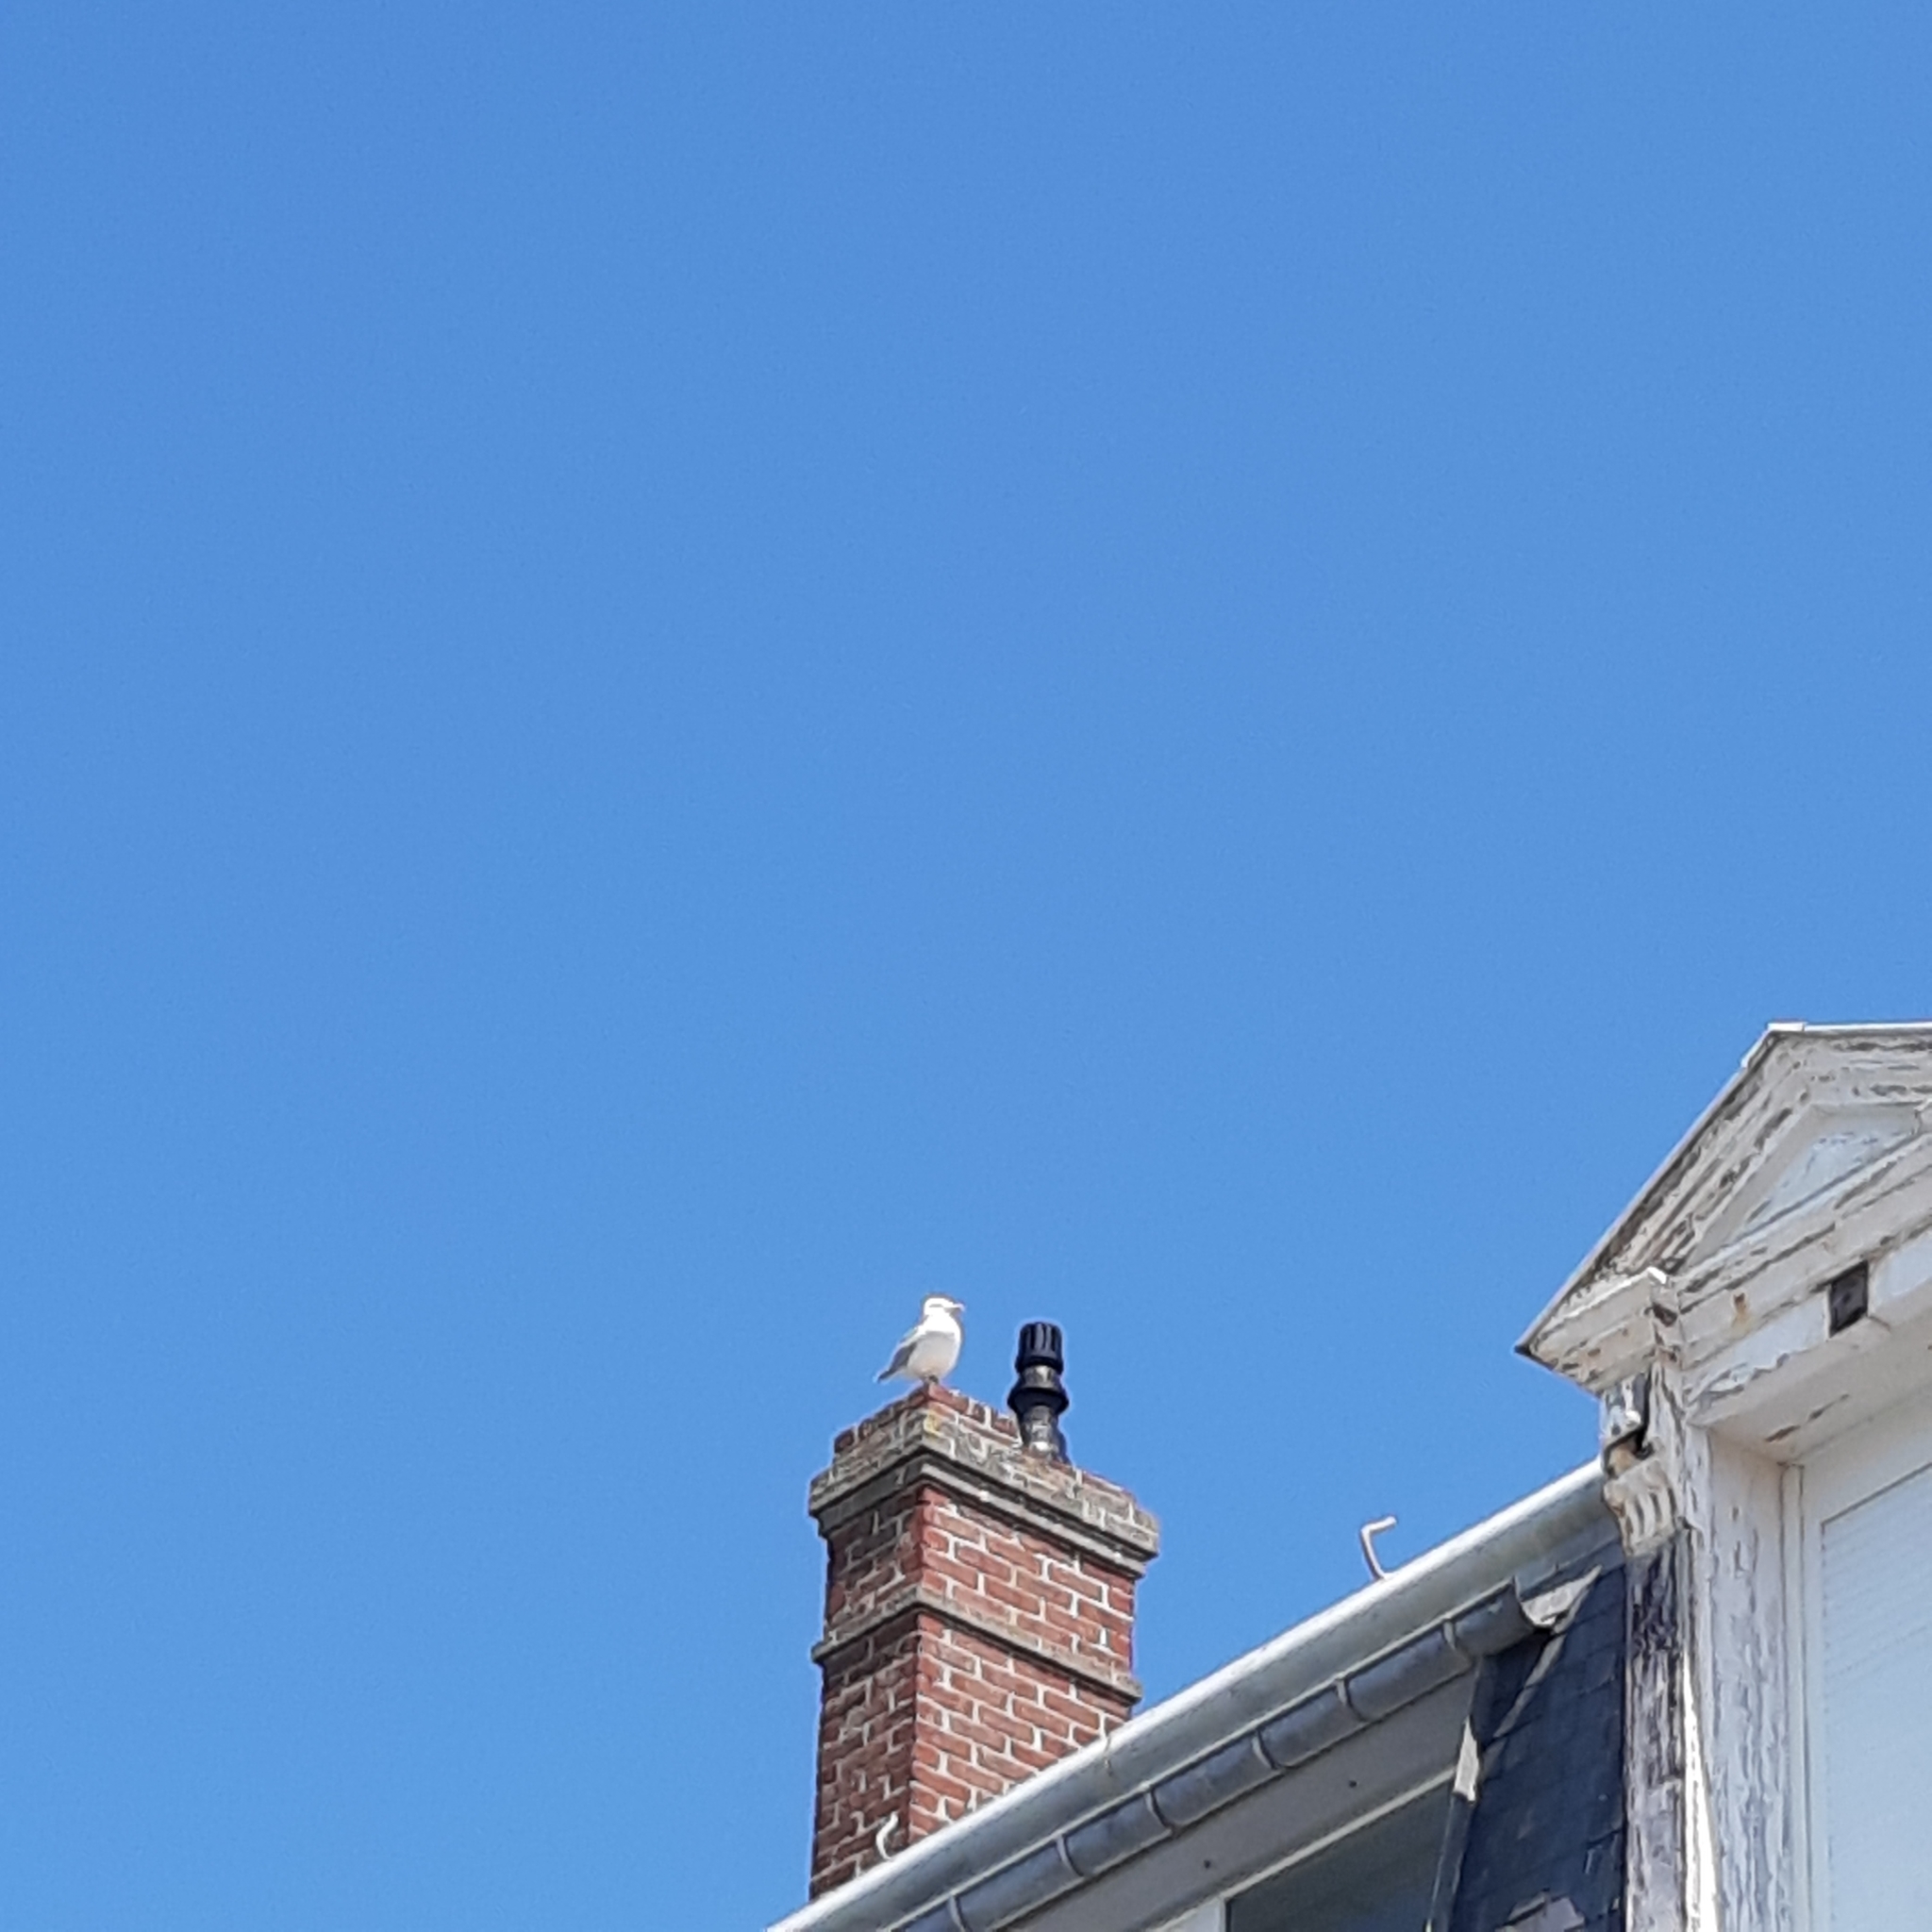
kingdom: Animalia
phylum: Chordata
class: Aves
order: Charadriiformes
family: Laridae
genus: Larus
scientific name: Larus argentatus
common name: Herring gull
